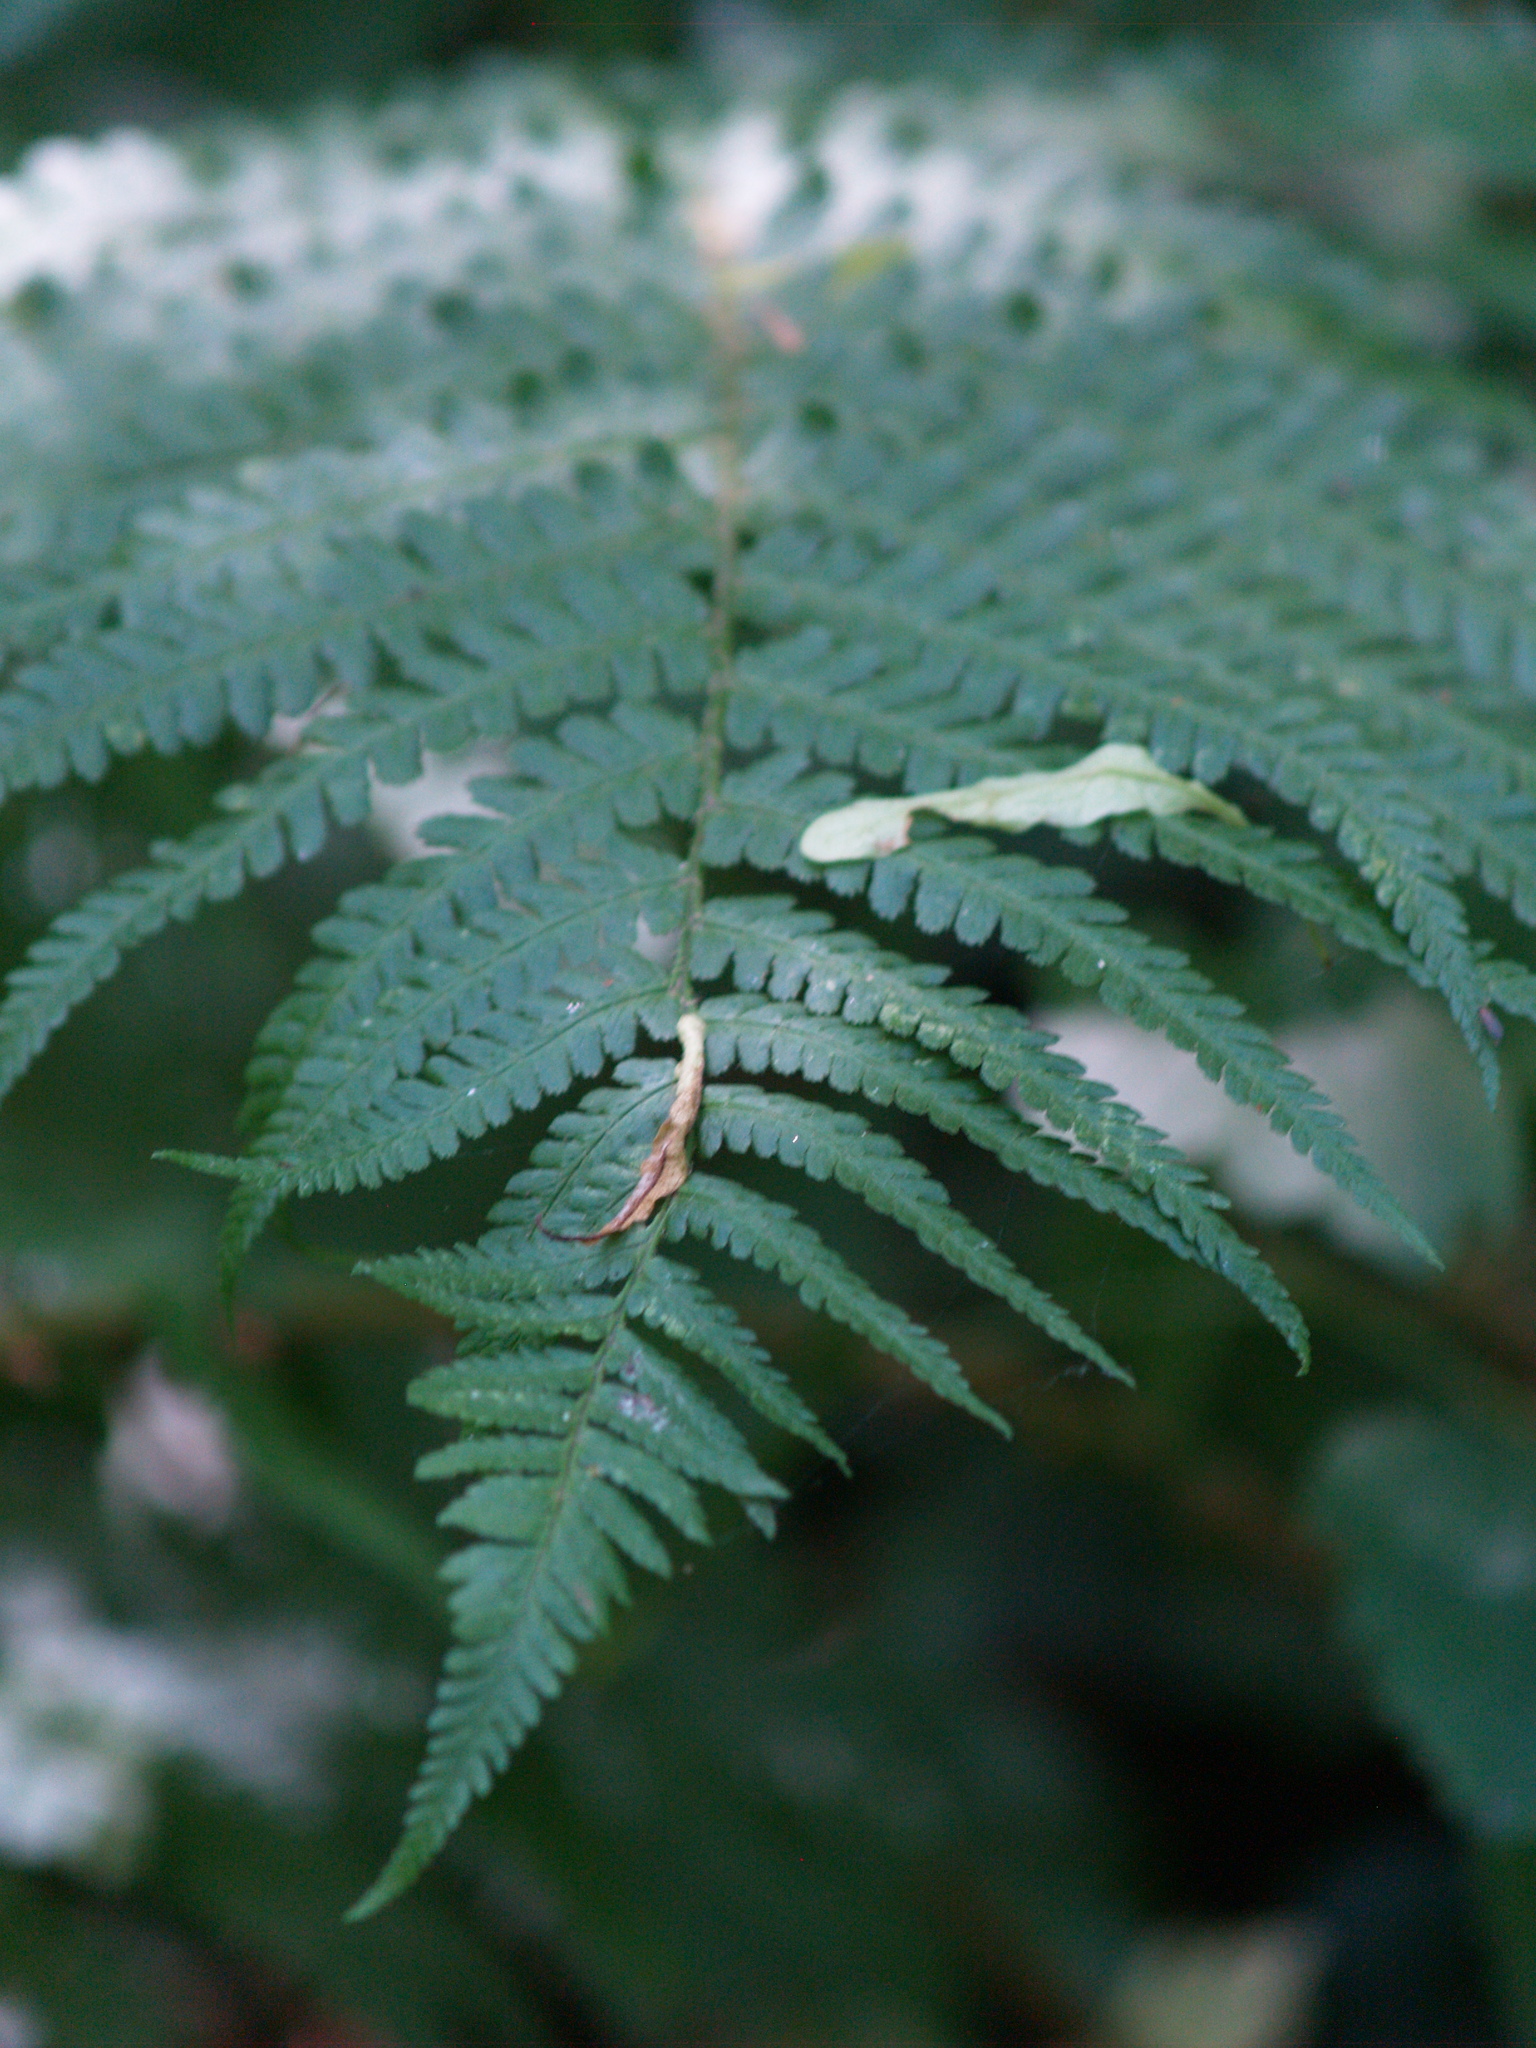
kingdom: Plantae
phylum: Tracheophyta
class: Polypodiopsida
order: Polypodiales
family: Dryopteridaceae
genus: Dryopteris
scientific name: Dryopteris filix-mas
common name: Male fern
